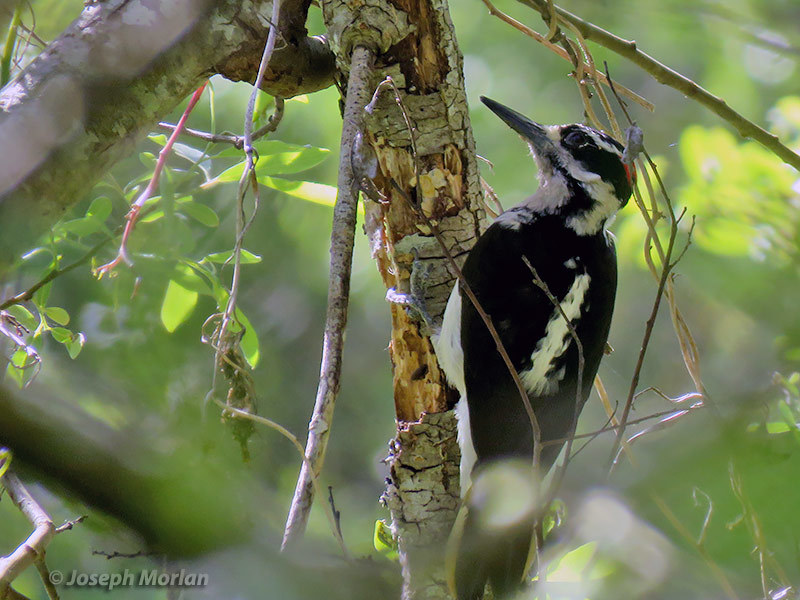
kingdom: Animalia
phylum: Chordata
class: Aves
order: Piciformes
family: Picidae
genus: Leuconotopicus
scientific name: Leuconotopicus villosus
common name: Hairy woodpecker
